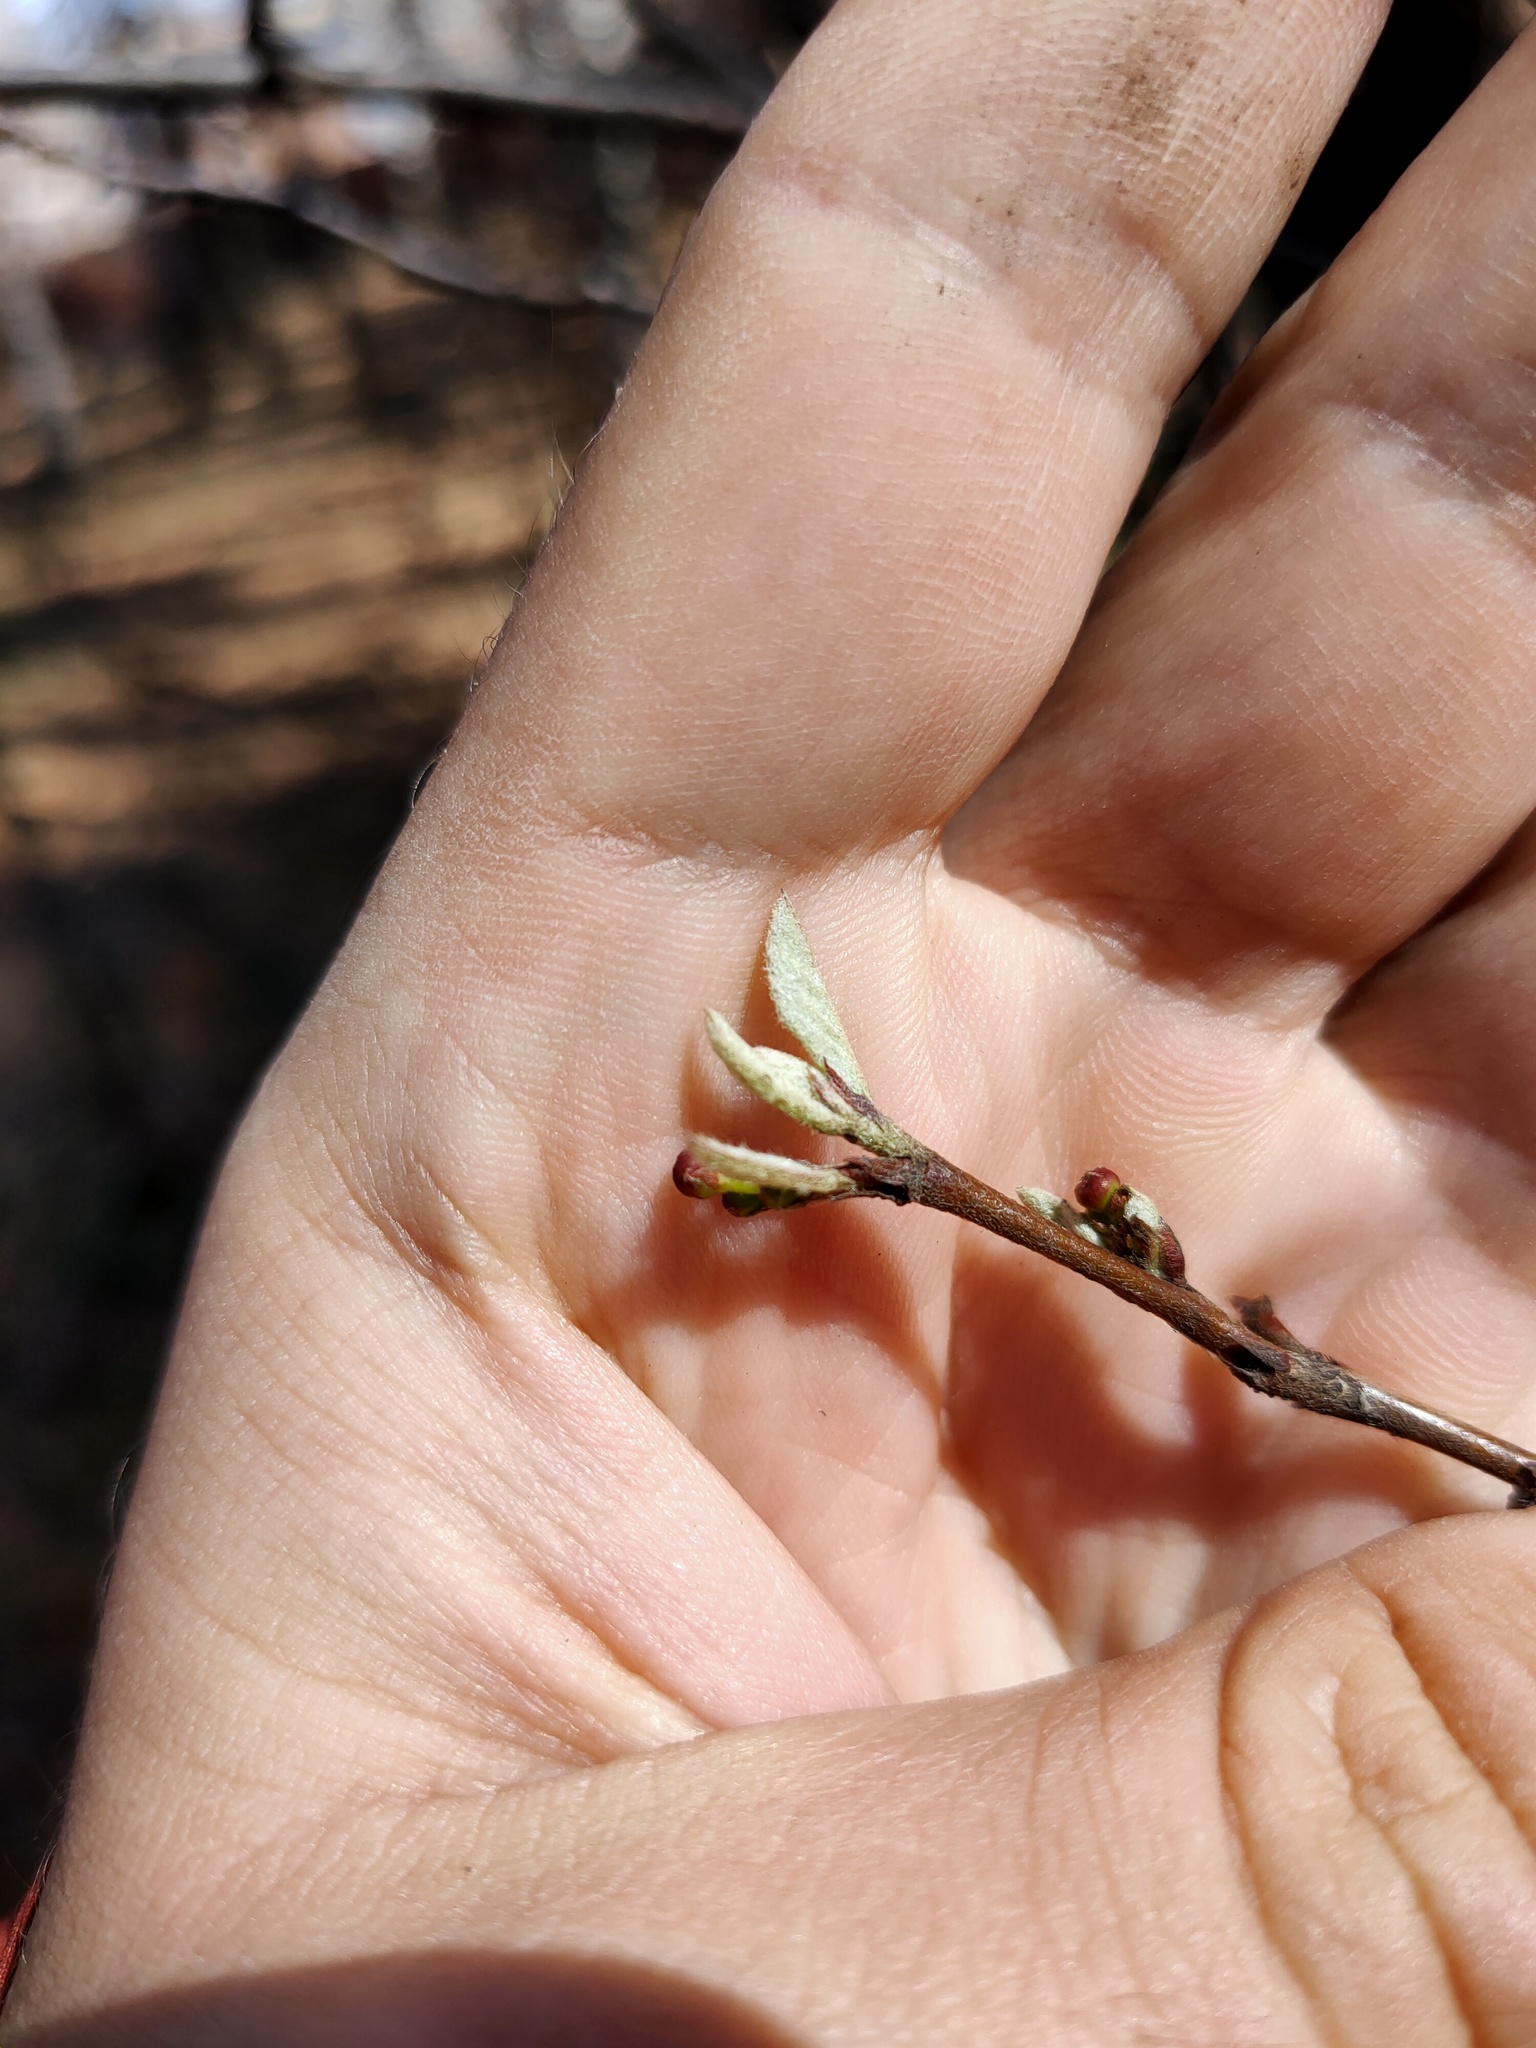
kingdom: Plantae
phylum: Tracheophyta
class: Magnoliopsida
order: Rosales
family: Rosaceae
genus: Cotoneaster
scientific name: Cotoneaster
